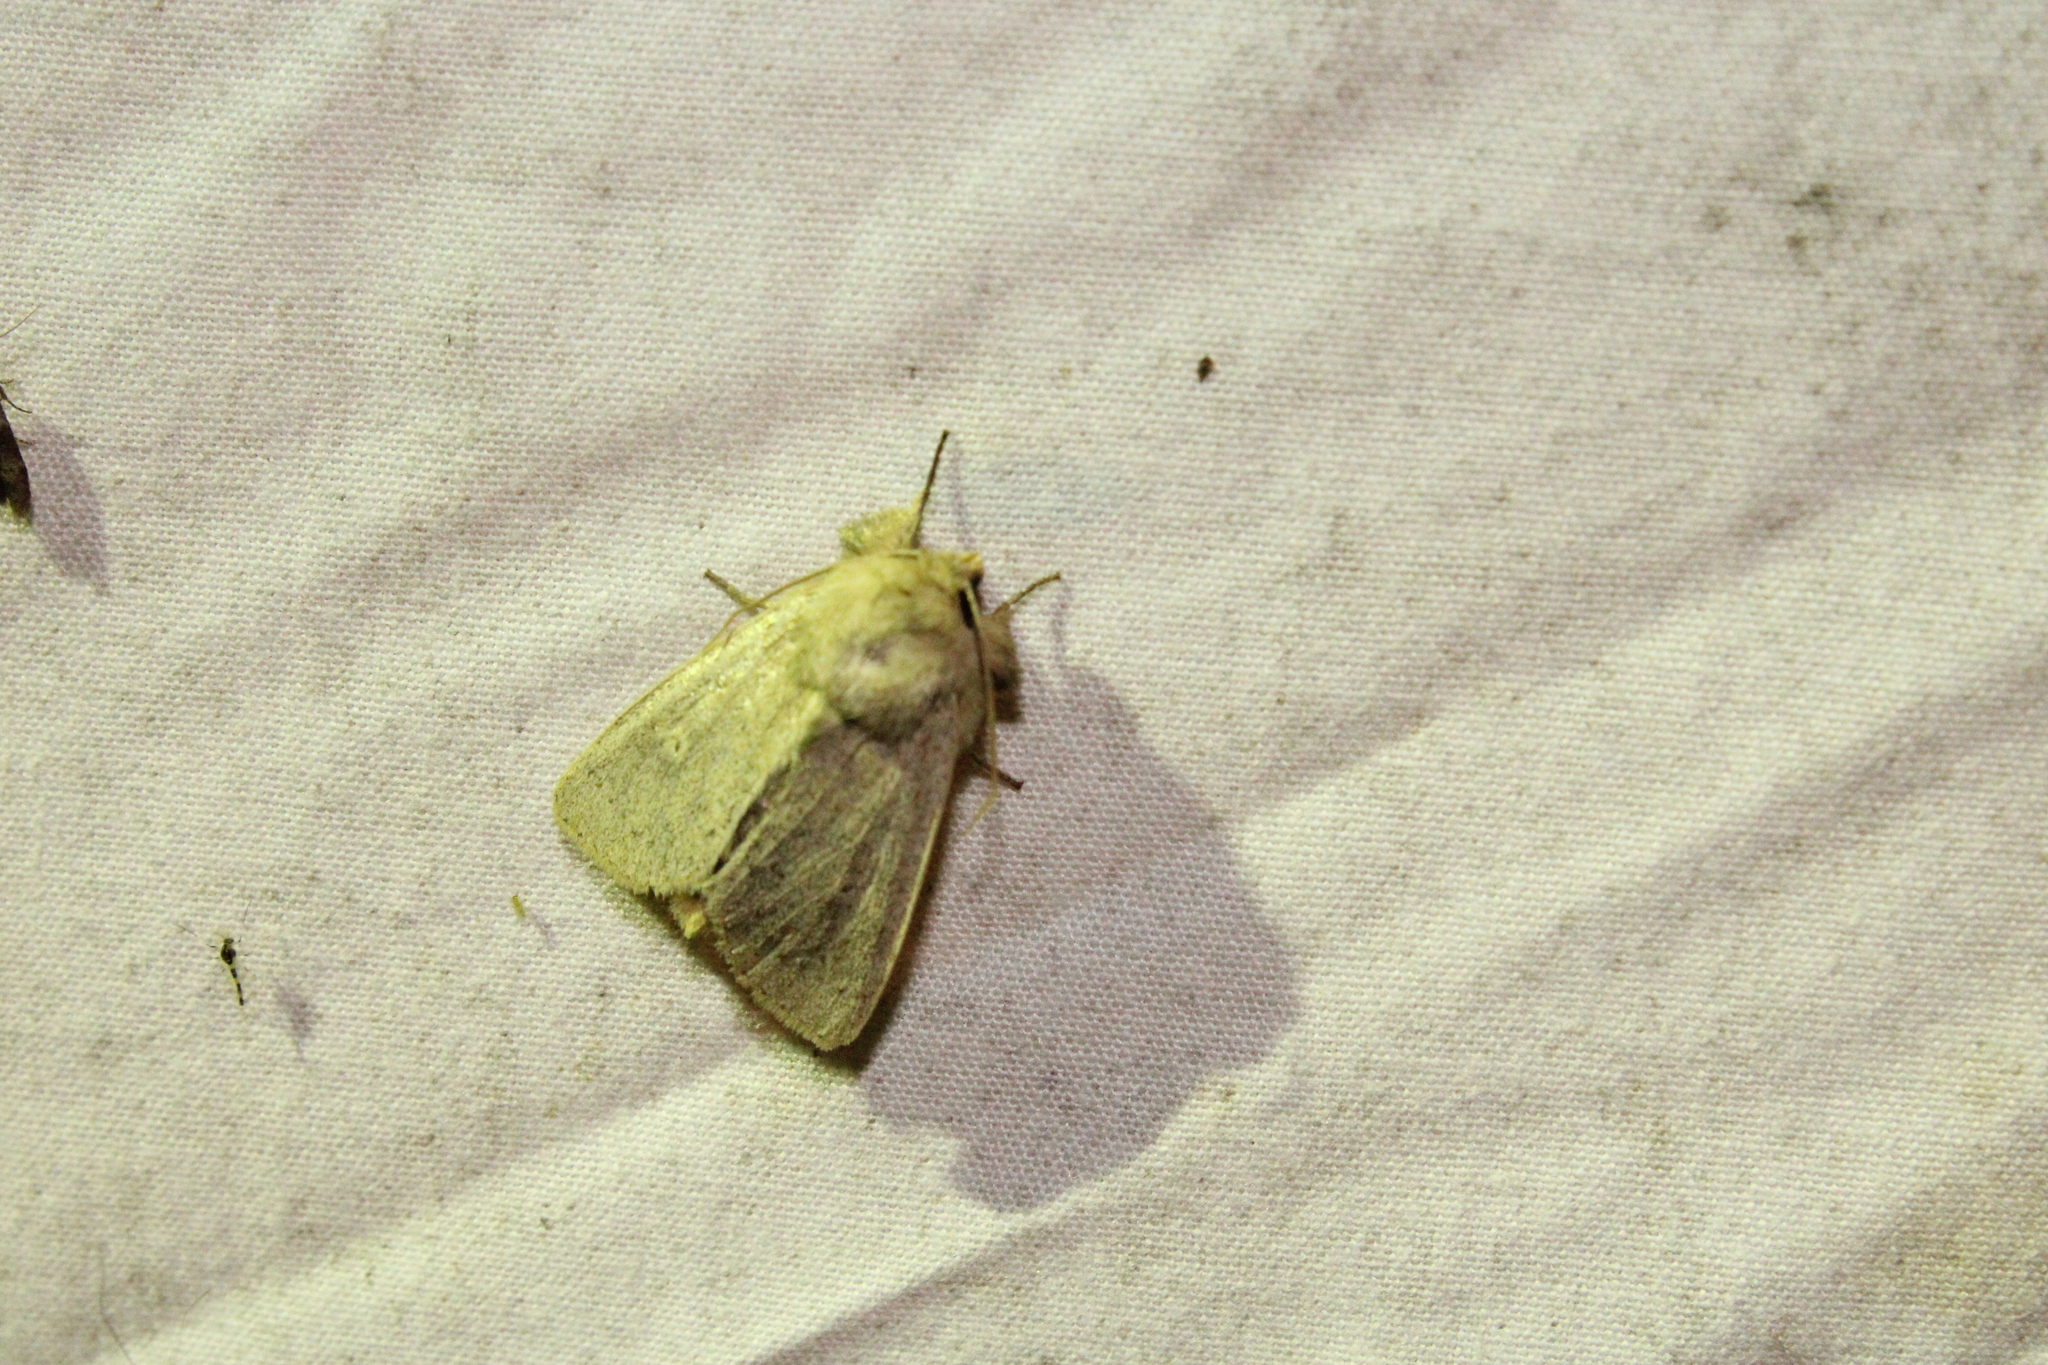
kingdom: Animalia
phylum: Arthropoda
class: Insecta
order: Lepidoptera
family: Noctuidae
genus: Leucania
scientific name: Leucania ursula
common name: Ursula wainscot
